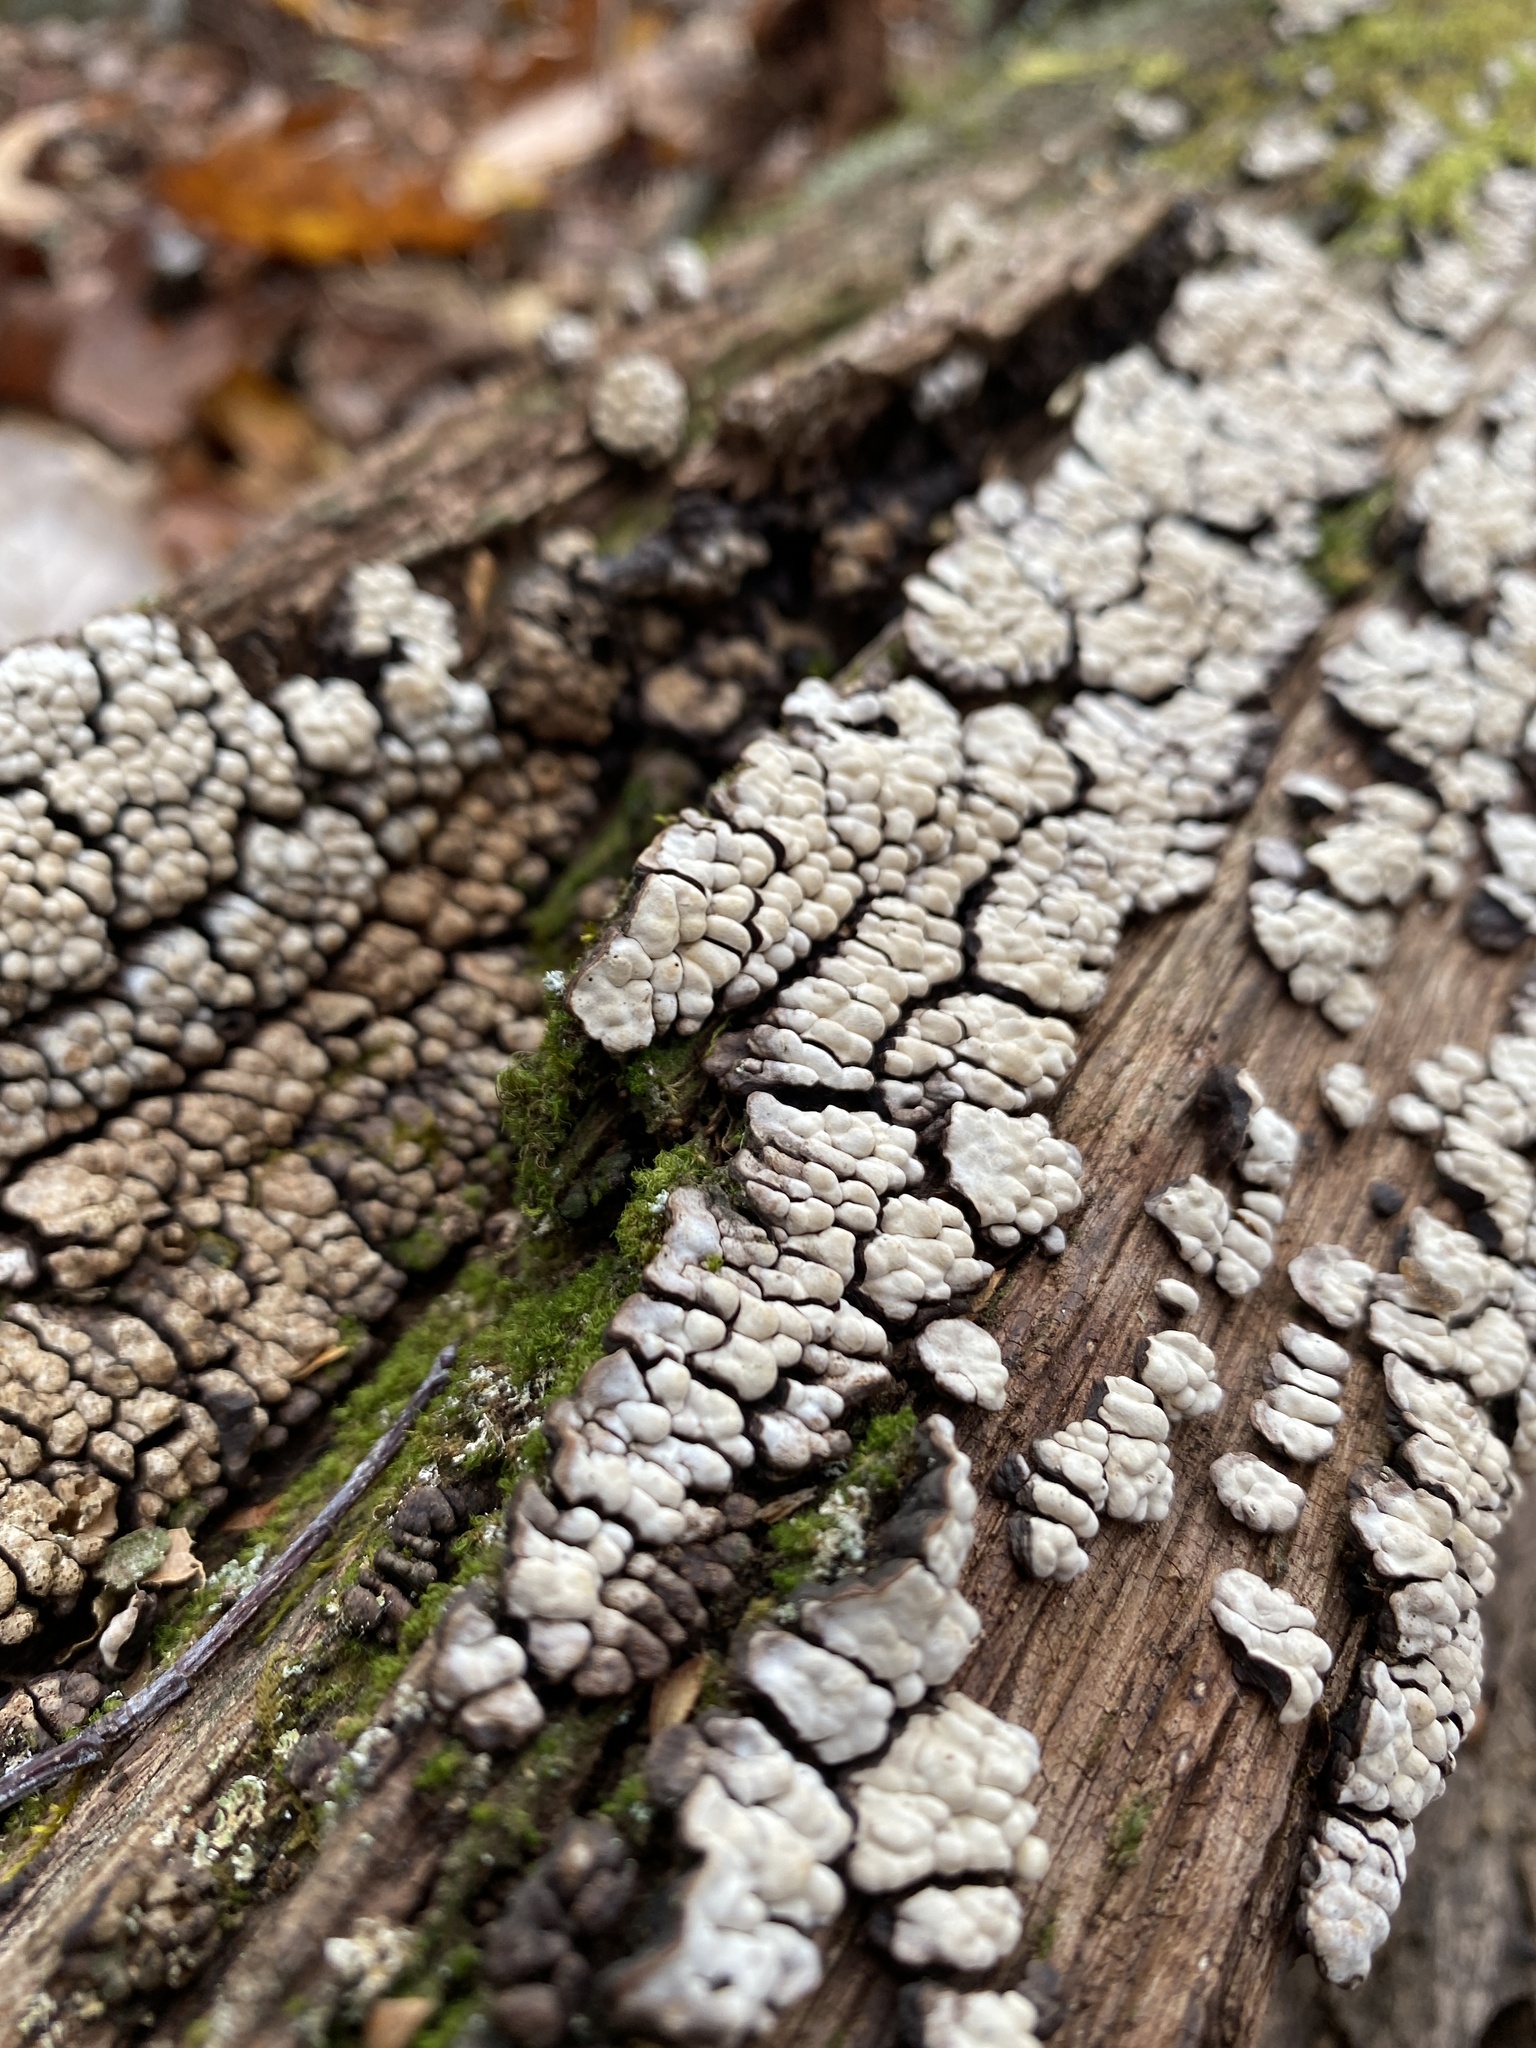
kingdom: Fungi
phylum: Basidiomycota
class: Agaricomycetes
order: Russulales
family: Stereaceae
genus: Xylobolus
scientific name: Xylobolus frustulatus
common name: Ceramic parchment
